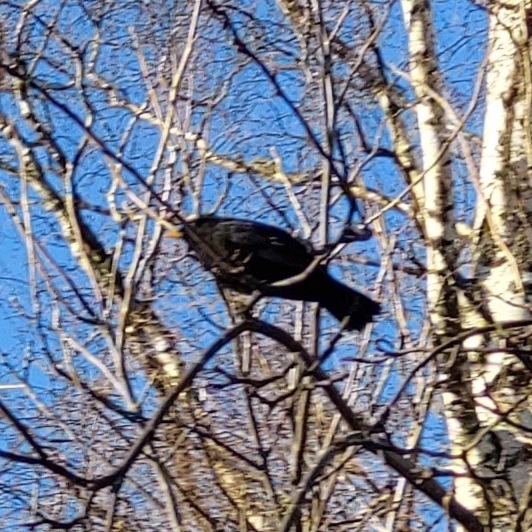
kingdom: Animalia
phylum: Chordata
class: Aves
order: Passeriformes
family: Turdidae
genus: Turdus
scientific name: Turdus merula
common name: Common blackbird
